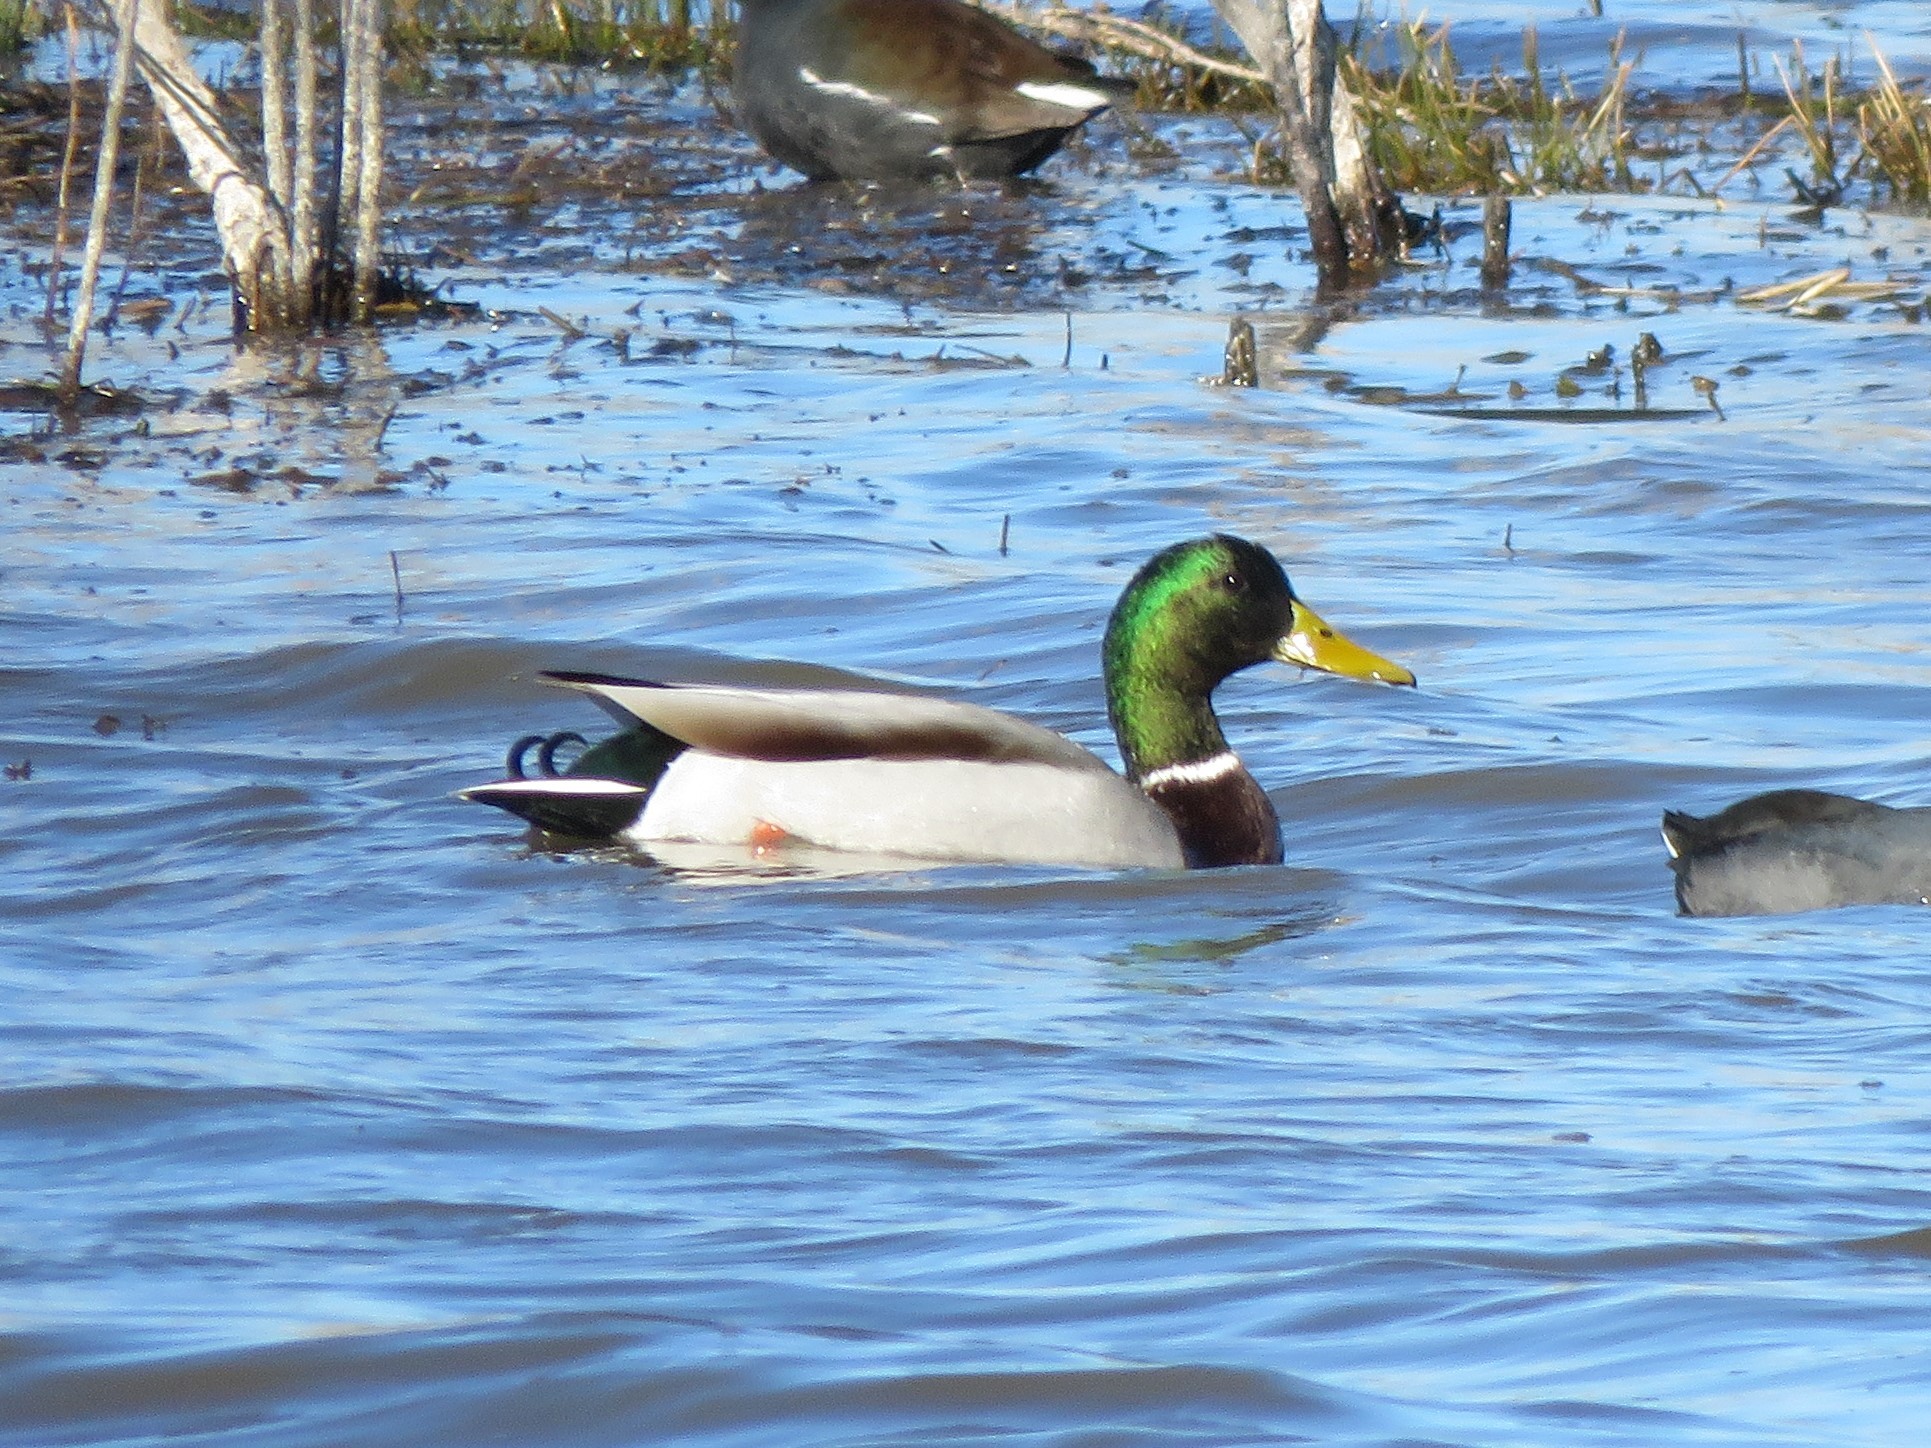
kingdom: Animalia
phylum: Chordata
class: Aves
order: Anseriformes
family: Anatidae
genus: Anas
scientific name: Anas platyrhynchos
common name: Mallard
